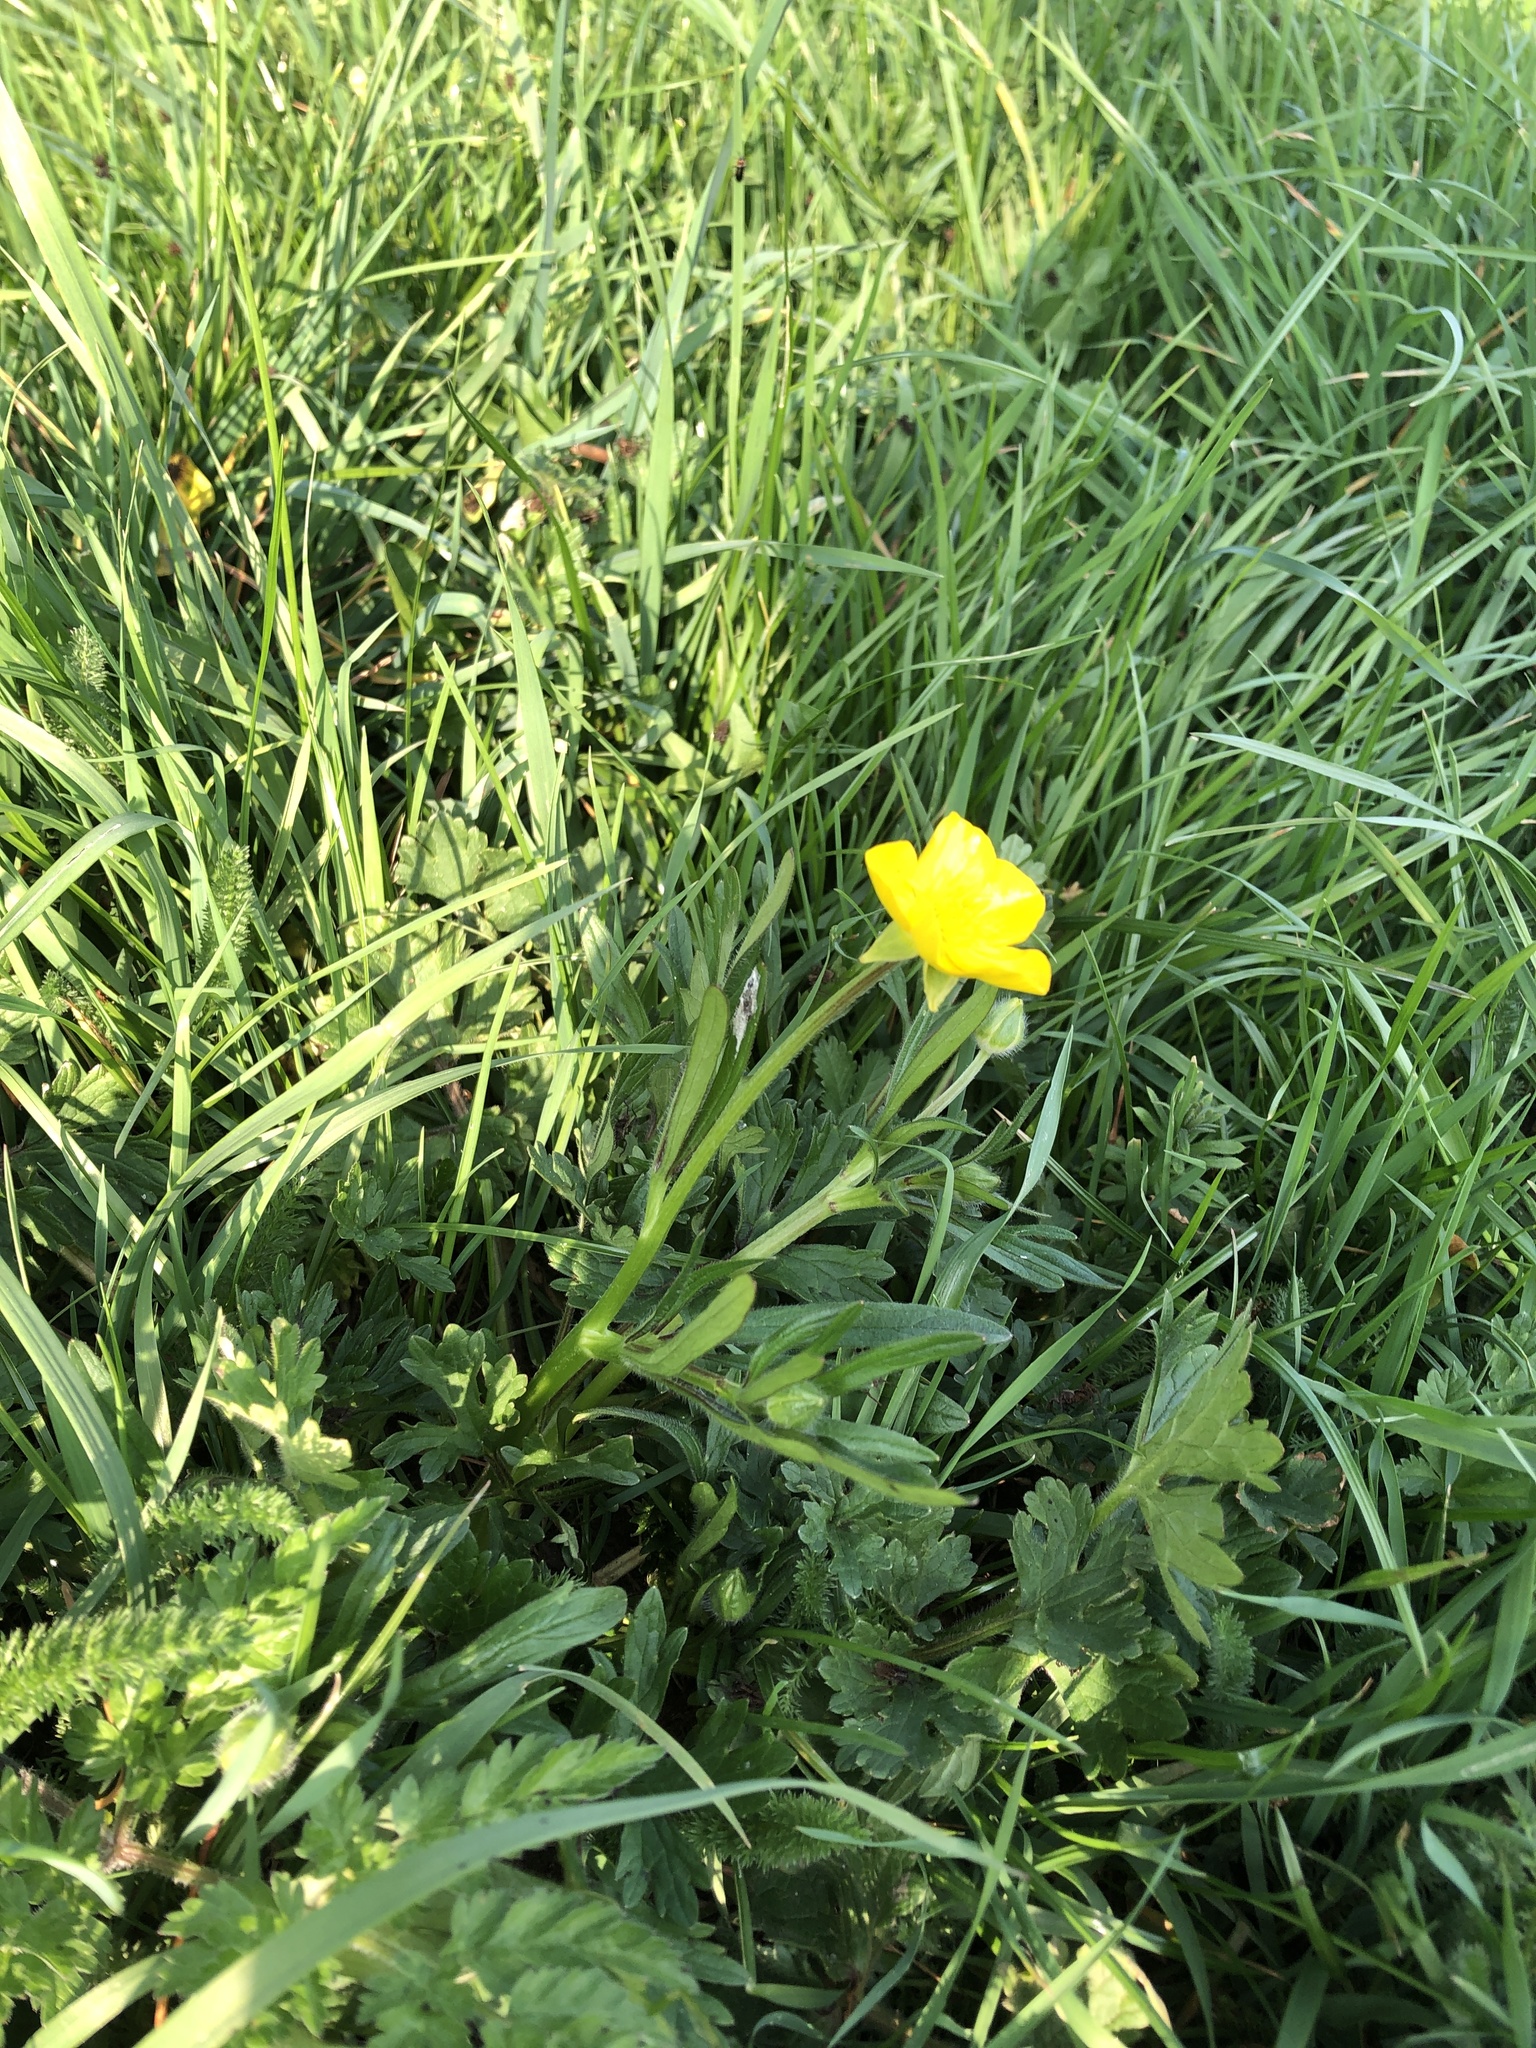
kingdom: Plantae
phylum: Tracheophyta
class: Magnoliopsida
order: Ranunculales
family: Ranunculaceae
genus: Ranunculus
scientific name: Ranunculus bulbosus
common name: Bulbous buttercup
